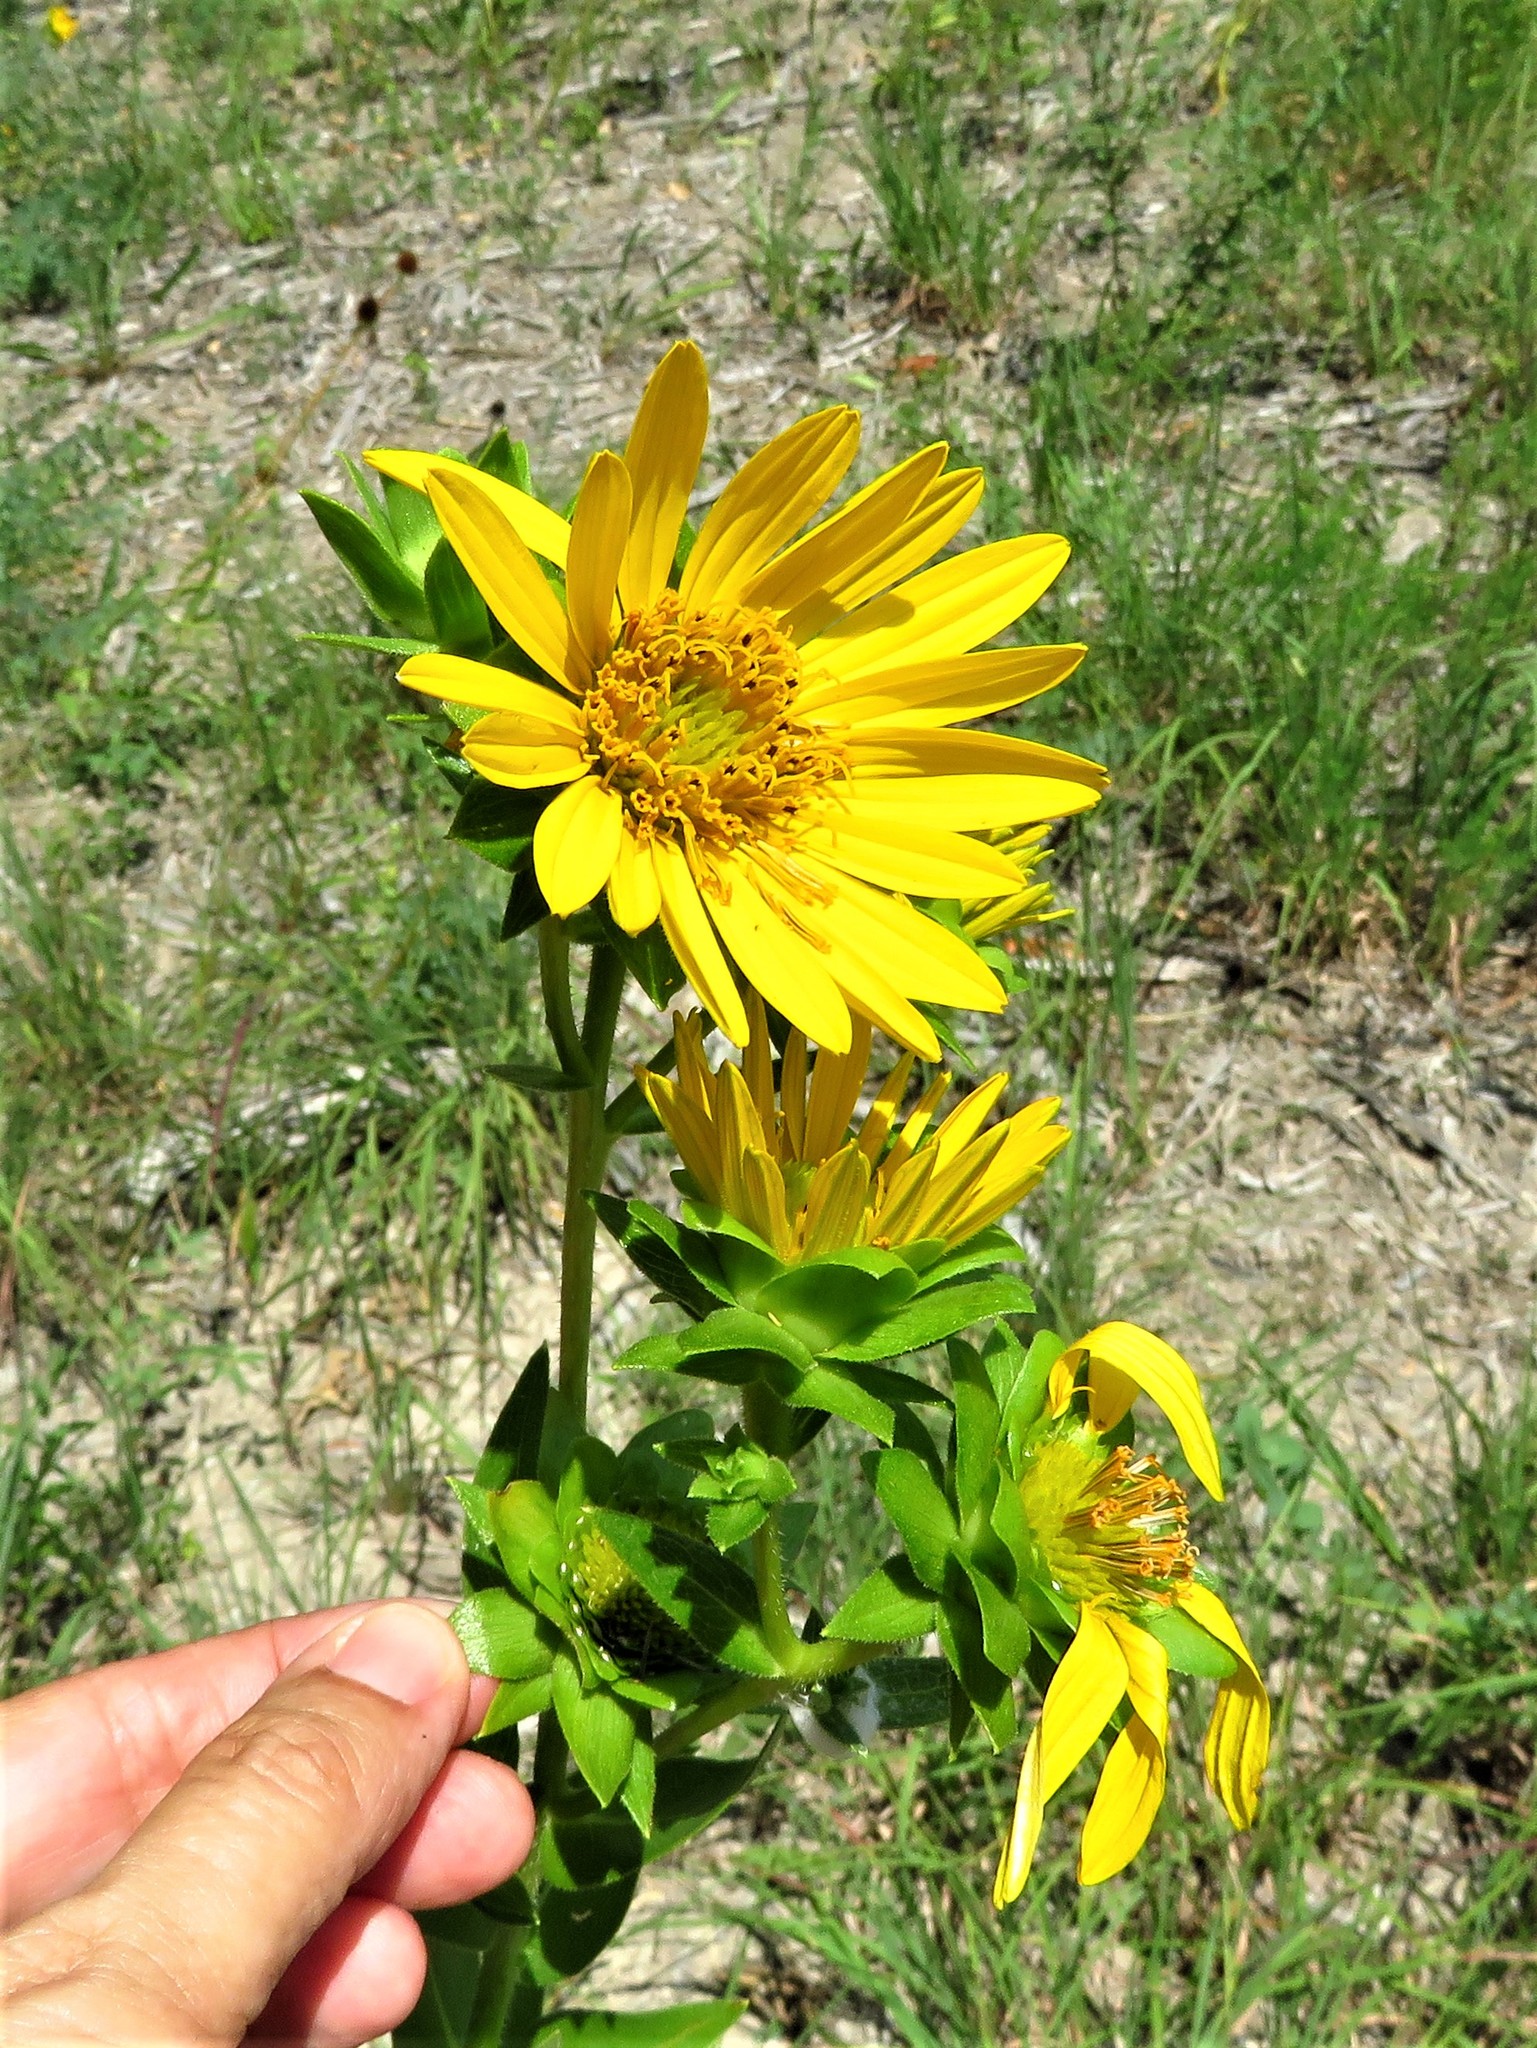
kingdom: Plantae
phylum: Tracheophyta
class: Magnoliopsida
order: Asterales
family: Asteraceae
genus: Silphium
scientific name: Silphium radula
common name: Roughleaf rosinweed
